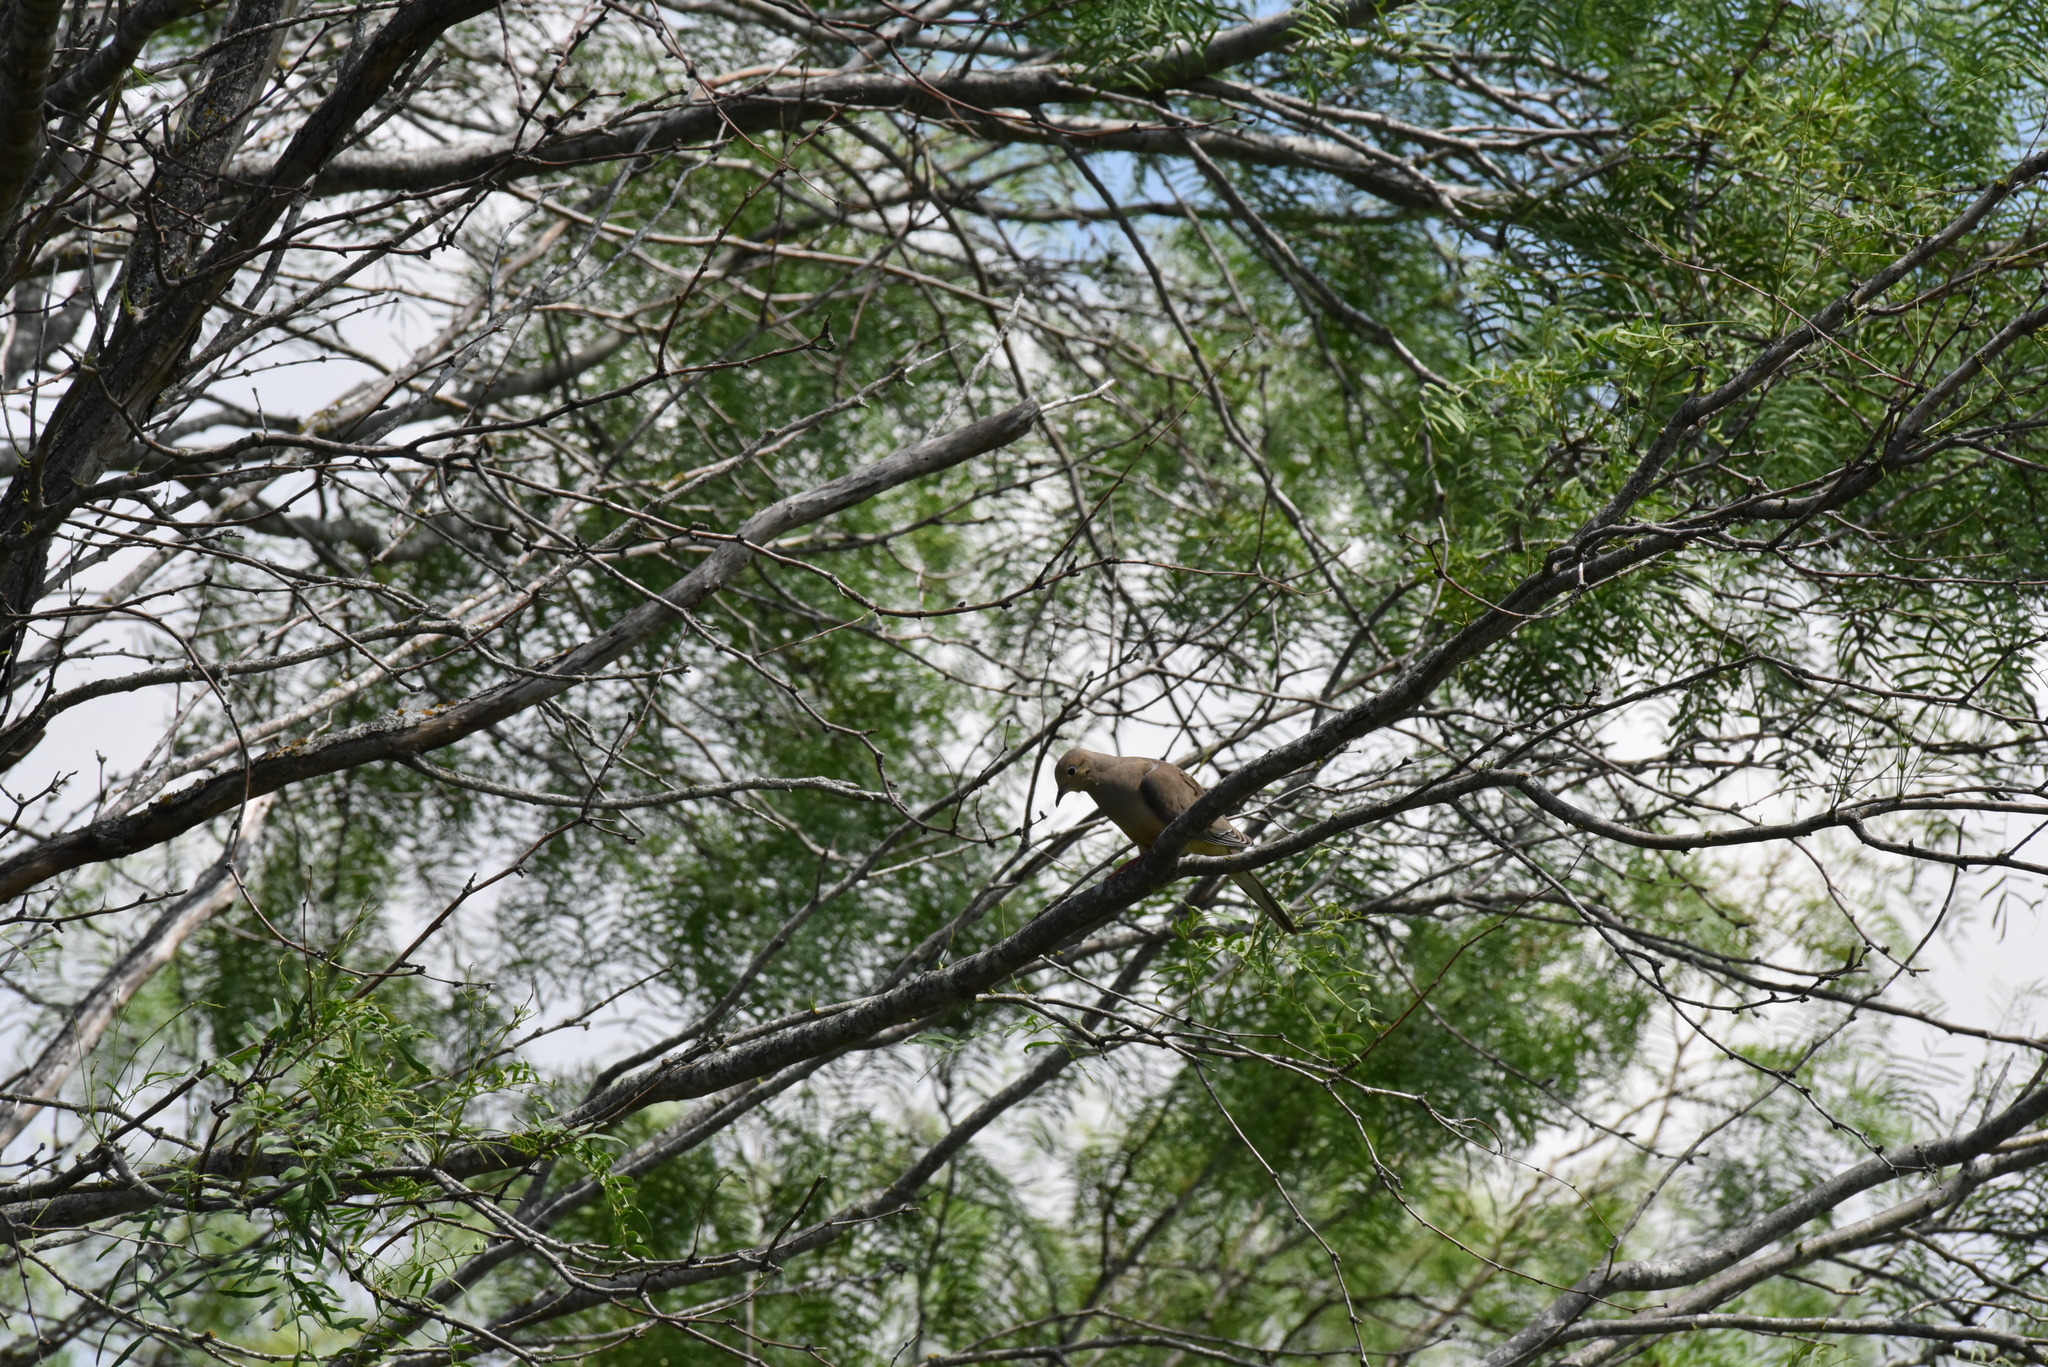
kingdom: Animalia
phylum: Chordata
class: Aves
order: Columbiformes
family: Columbidae
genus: Zenaida
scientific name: Zenaida macroura
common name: Mourning dove
